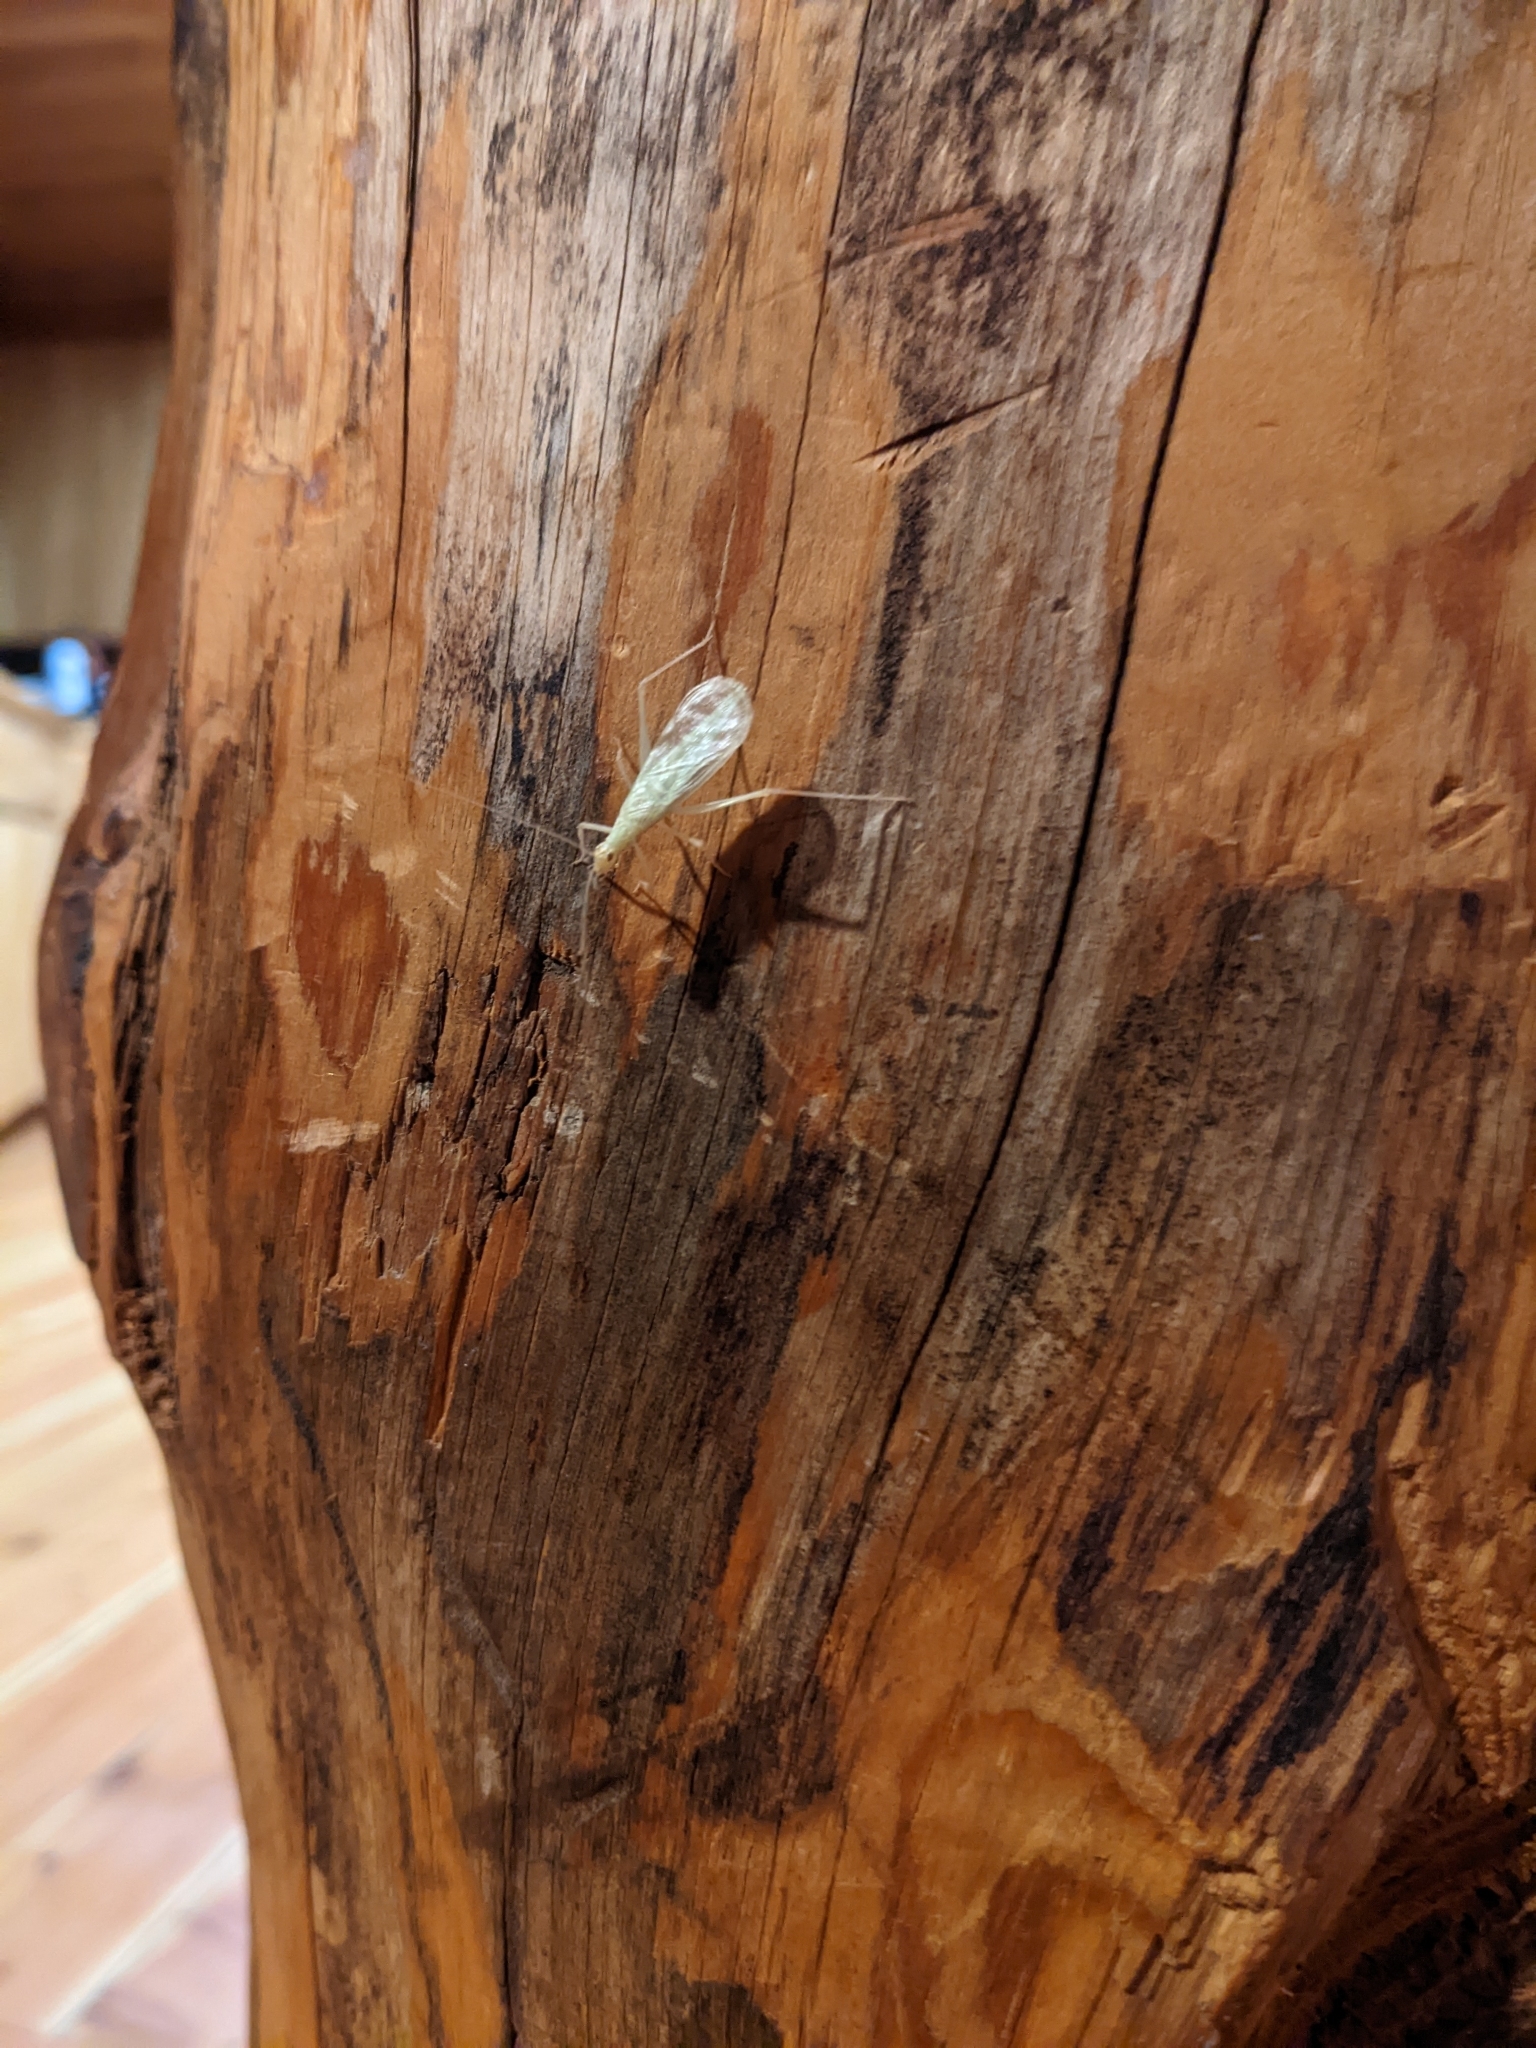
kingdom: Animalia
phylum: Arthropoda
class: Insecta
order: Orthoptera
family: Gryllidae
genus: Oecanthus
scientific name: Oecanthus californicus
